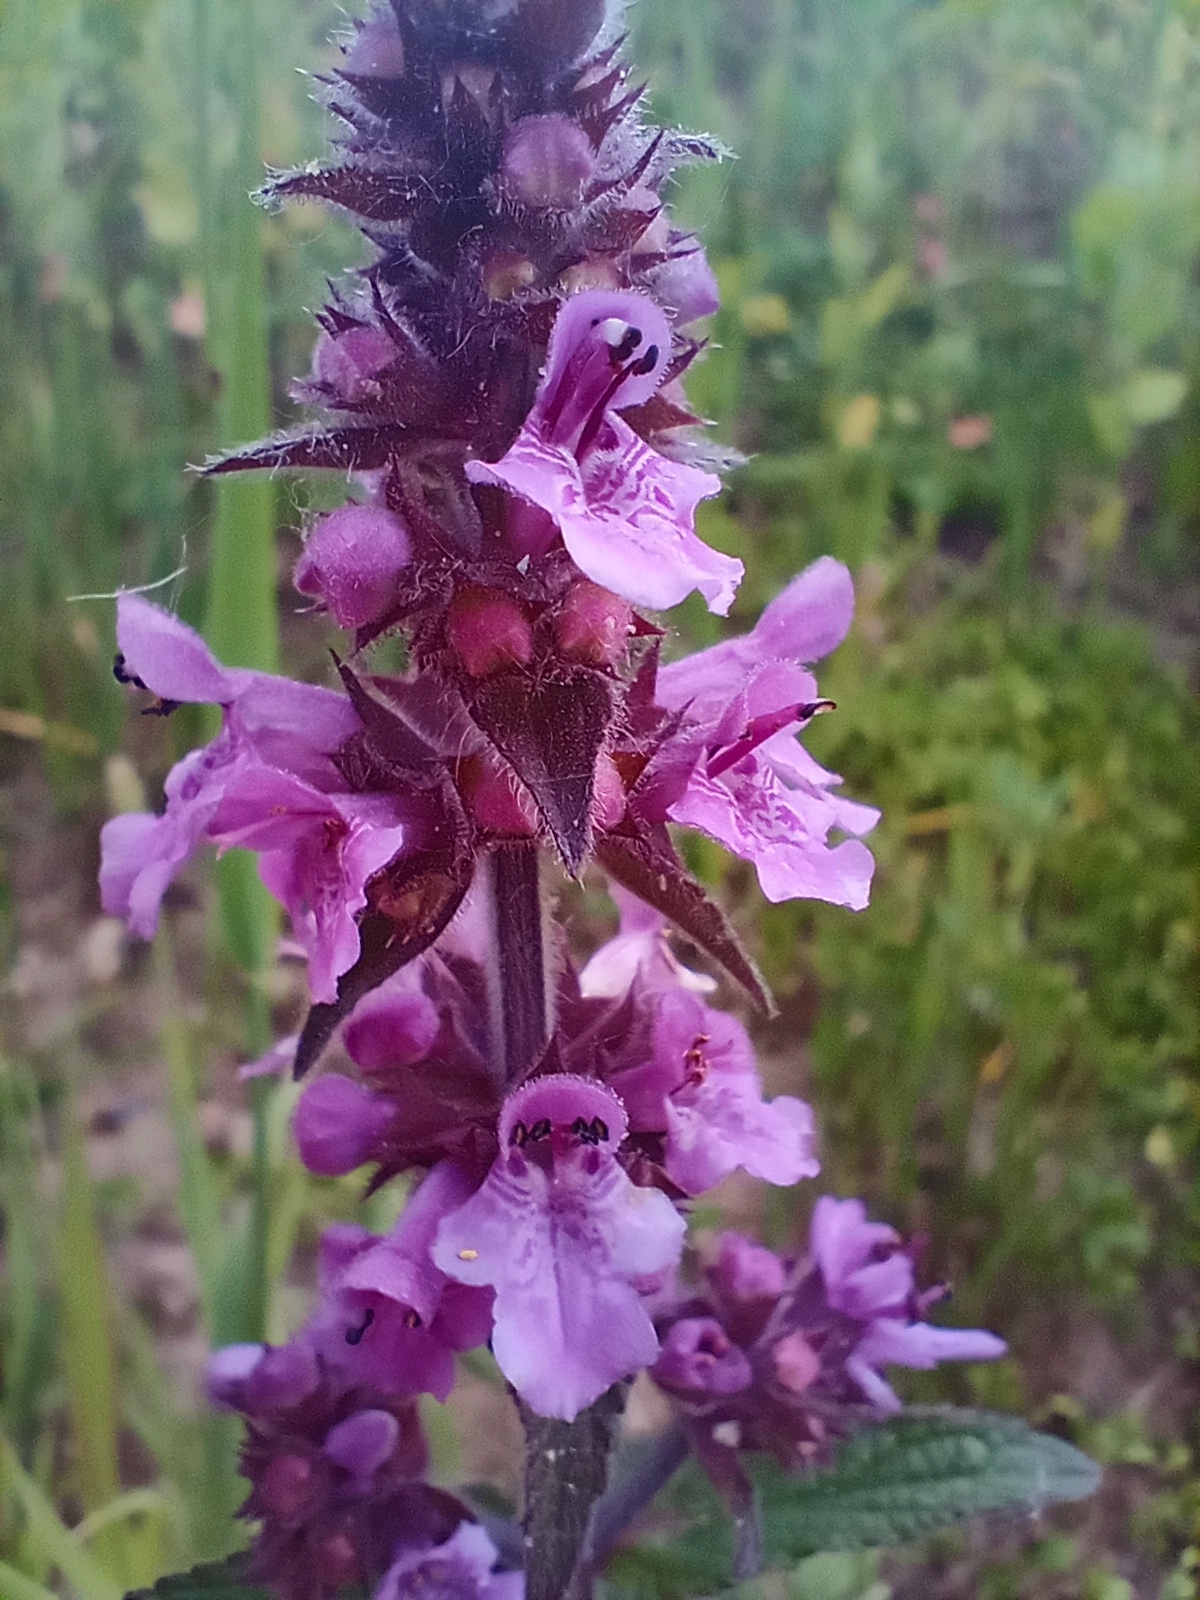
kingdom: Plantae
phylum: Tracheophyta
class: Magnoliopsida
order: Lamiales
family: Lamiaceae
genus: Stachys
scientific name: Stachys palustris
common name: Marsh woundwort
